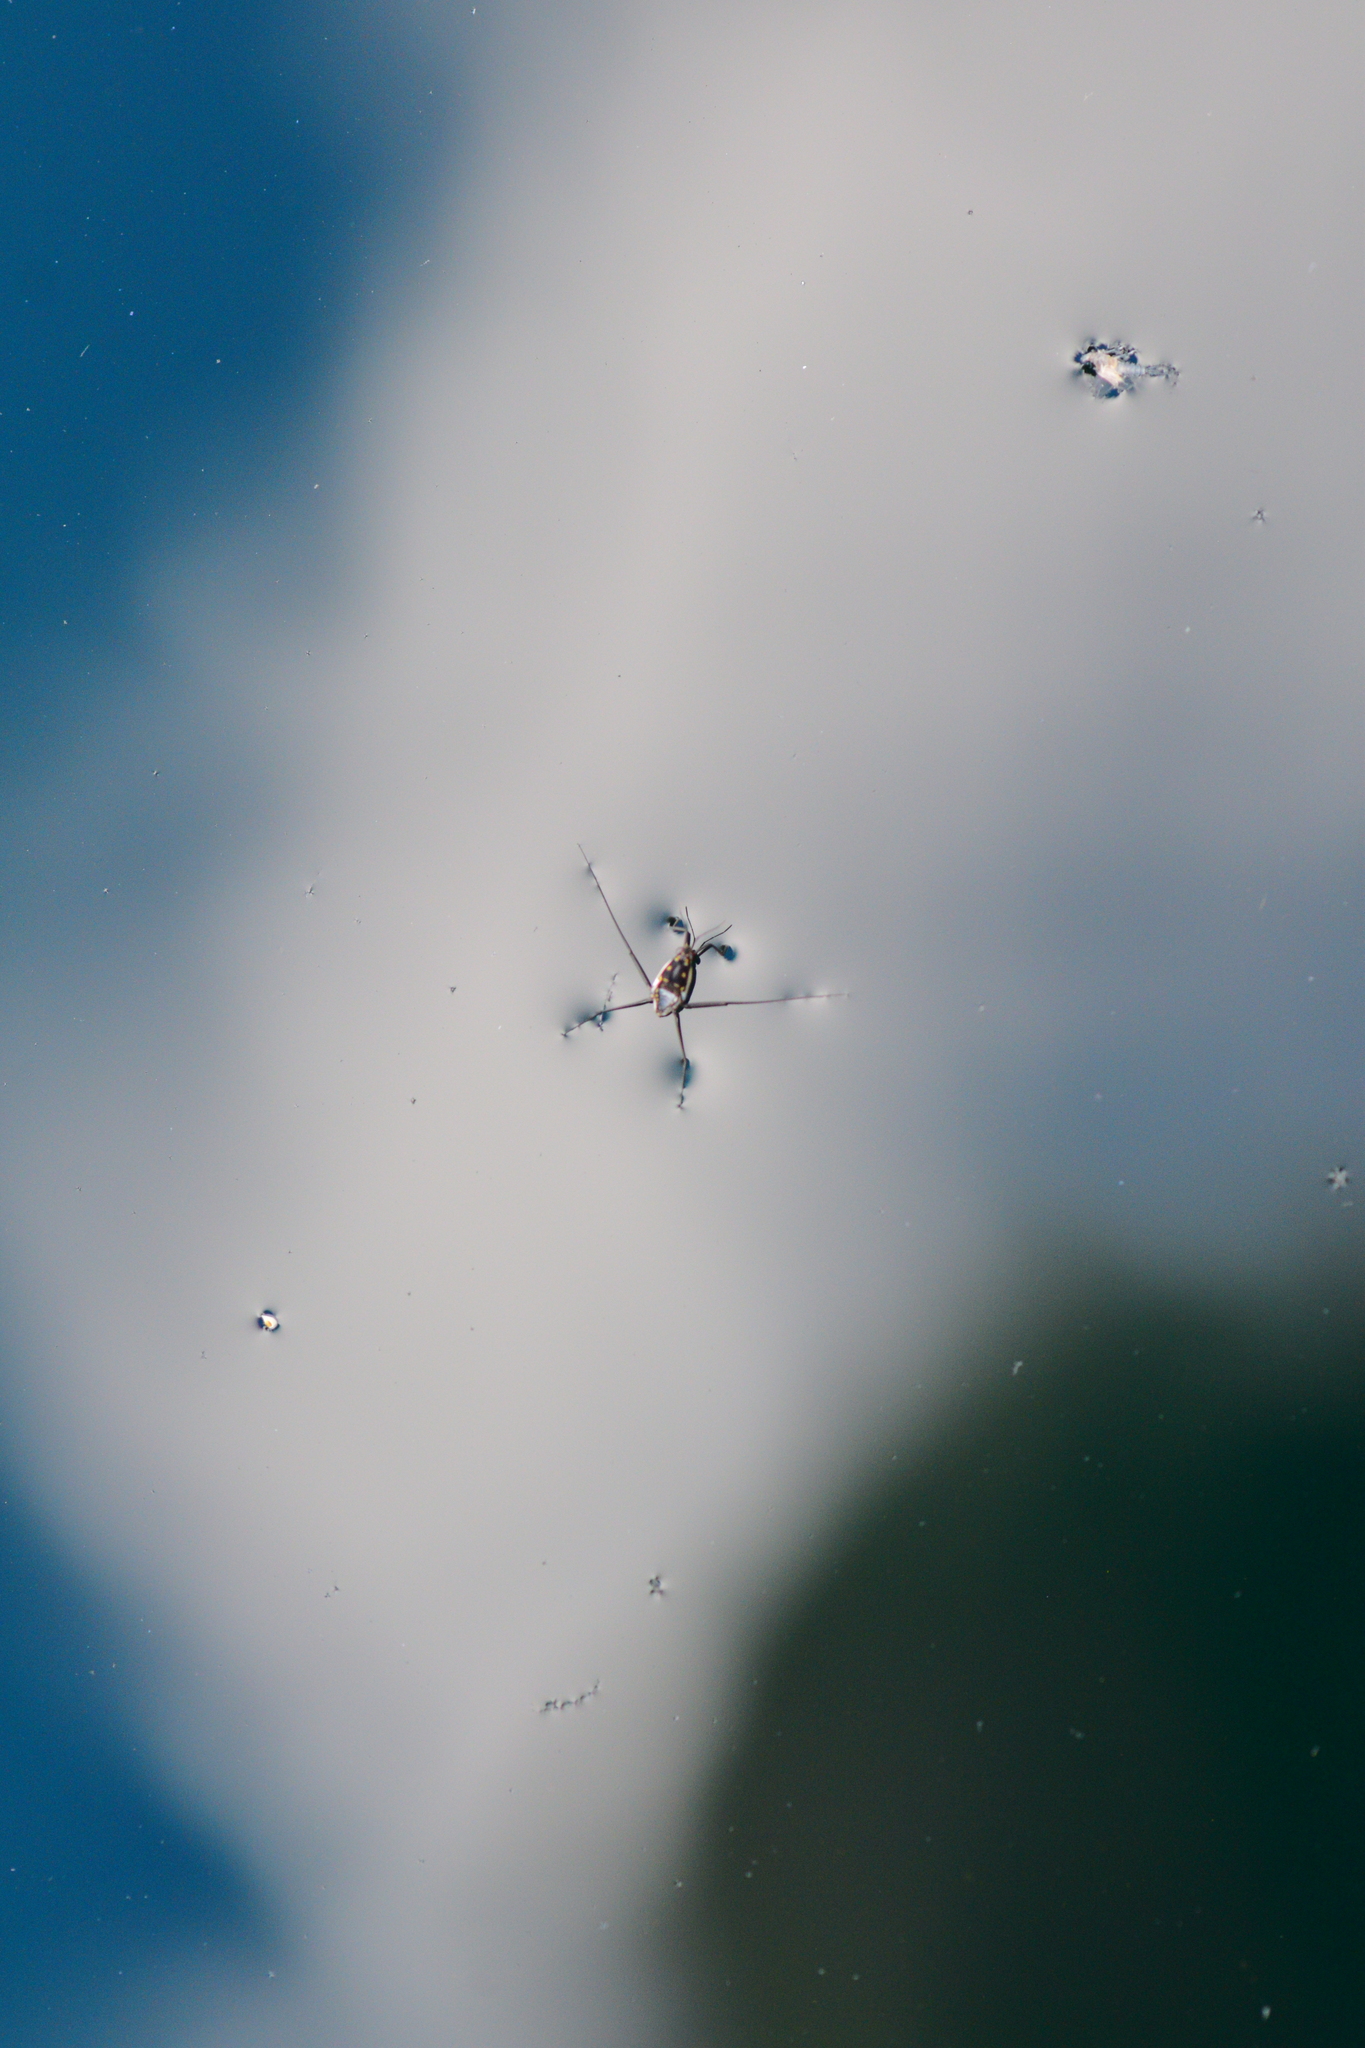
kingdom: Animalia
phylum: Arthropoda
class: Insecta
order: Hemiptera
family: Gerridae
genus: Trepobates
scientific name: Trepobates subnitidus
